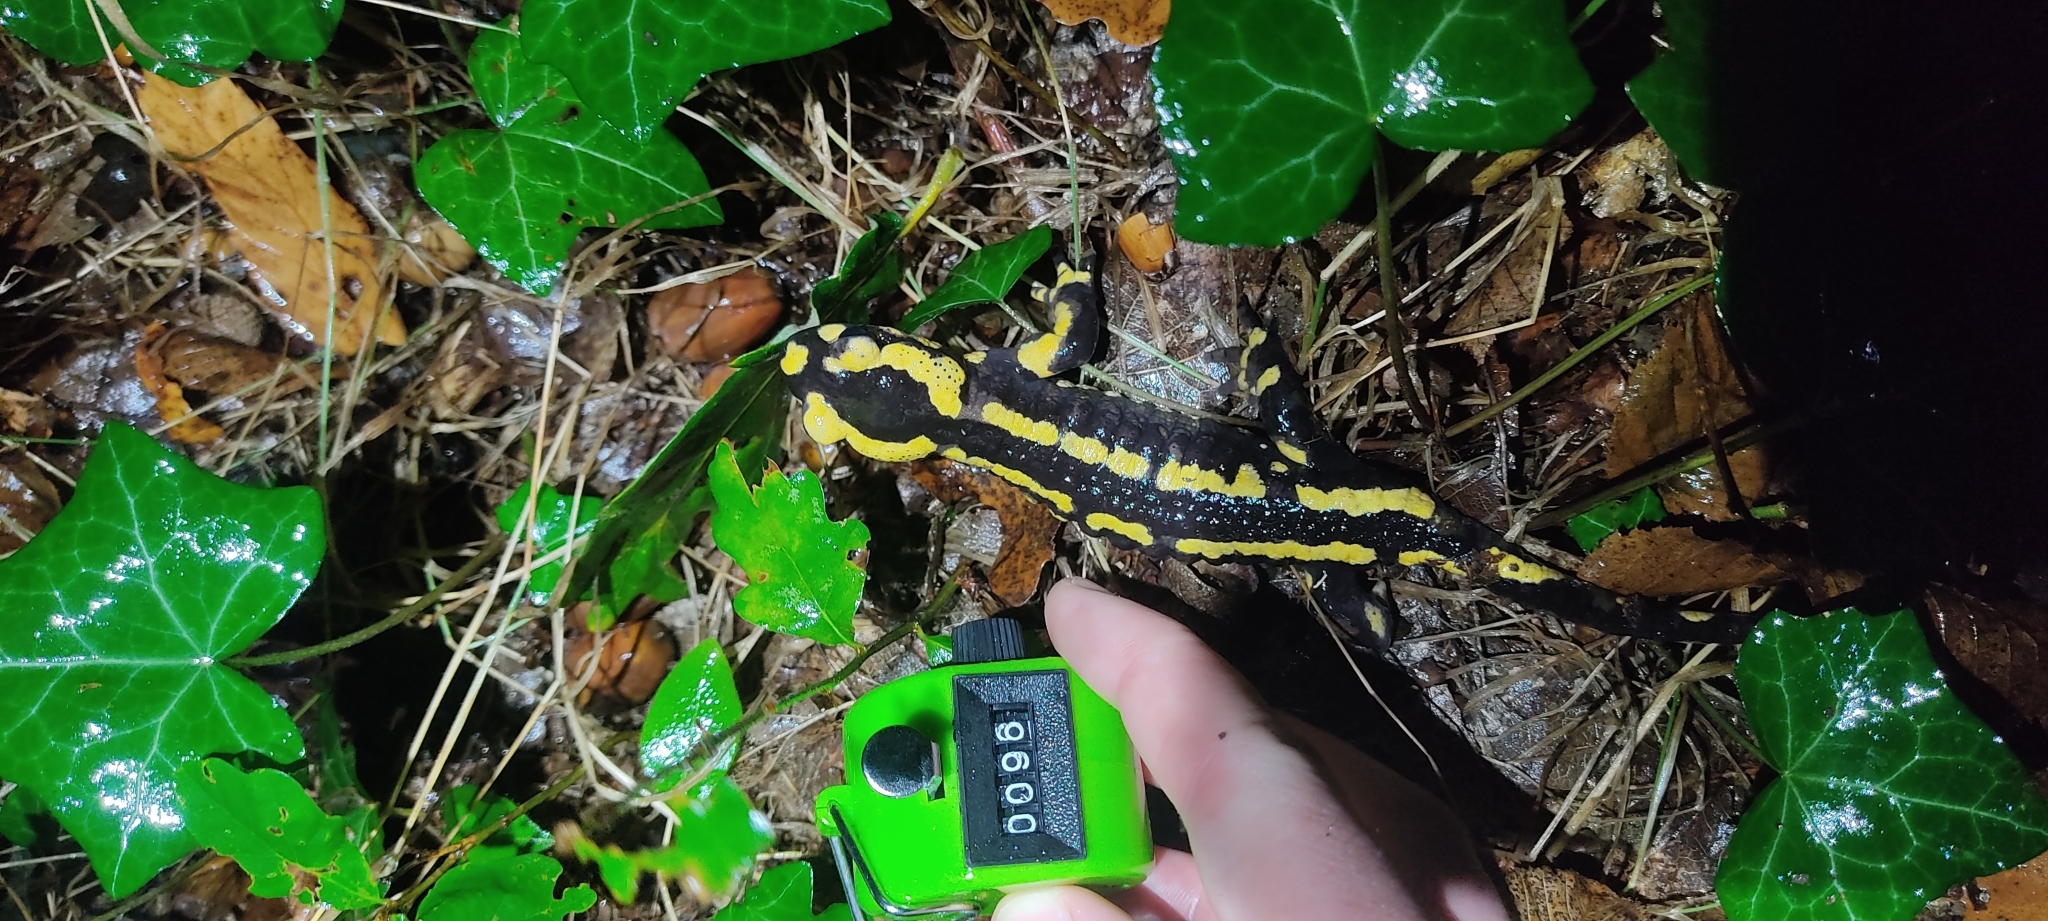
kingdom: Animalia
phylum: Chordata
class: Amphibia
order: Caudata
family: Salamandridae
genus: Salamandra
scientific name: Salamandra salamandra
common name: Fire salamander
